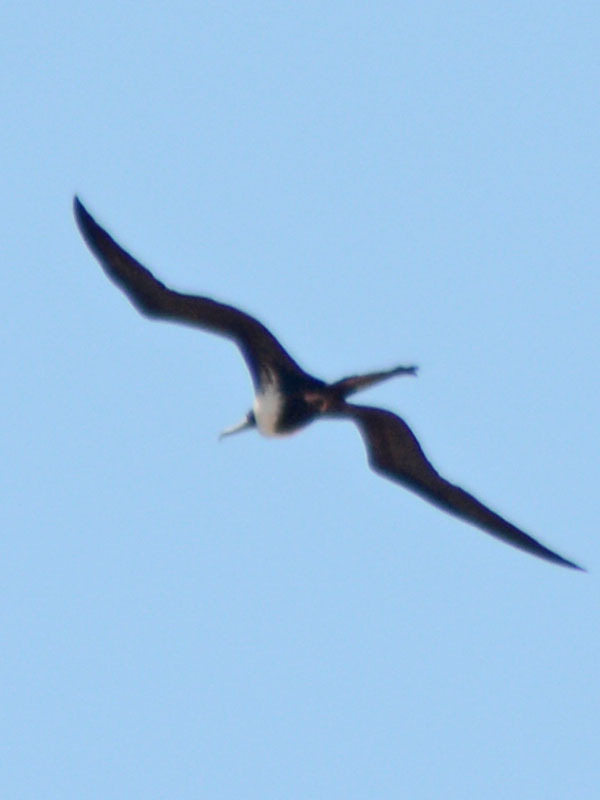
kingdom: Animalia
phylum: Chordata
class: Aves
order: Suliformes
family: Fregatidae
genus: Fregata
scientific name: Fregata magnificens
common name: Magnificent frigatebird
